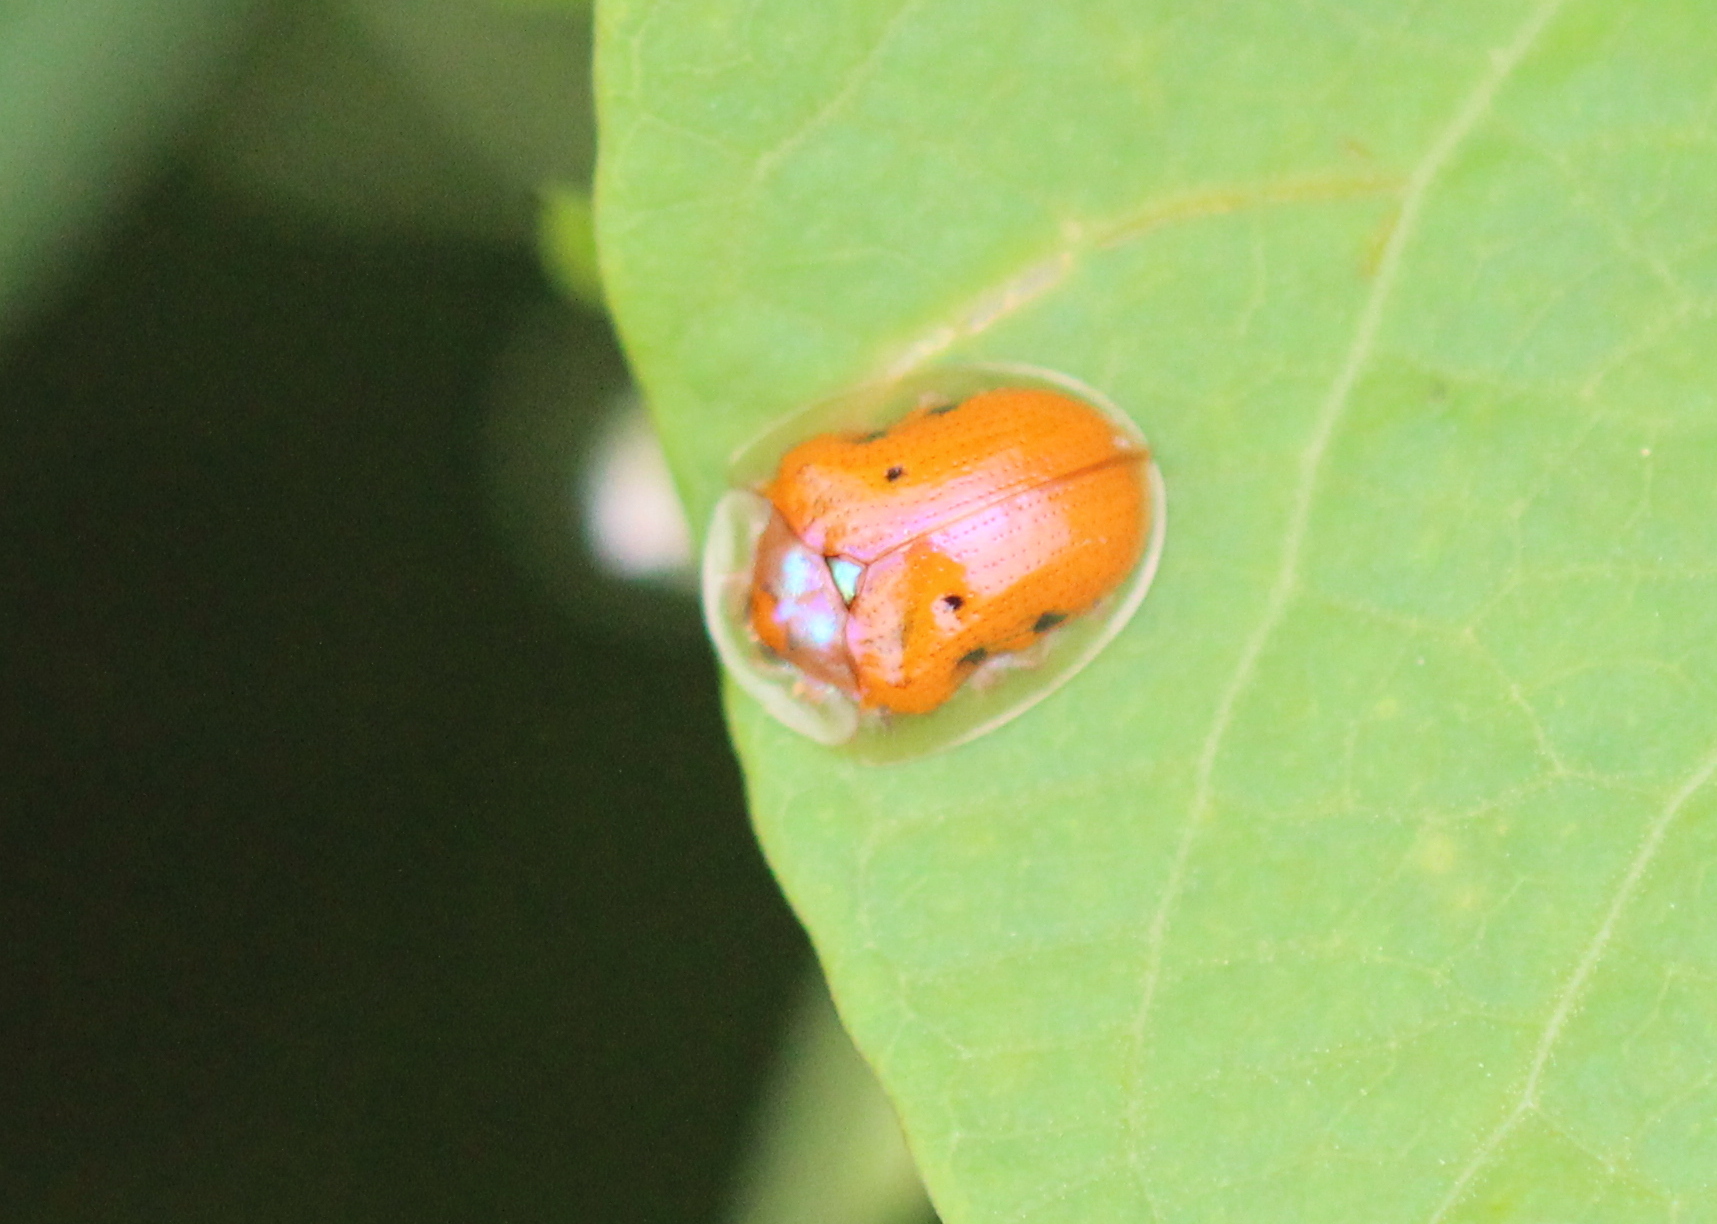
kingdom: Animalia
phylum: Arthropoda
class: Insecta
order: Coleoptera
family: Chrysomelidae
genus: Charidotella
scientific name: Charidotella sexpunctata
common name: Golden tortoise beetle
